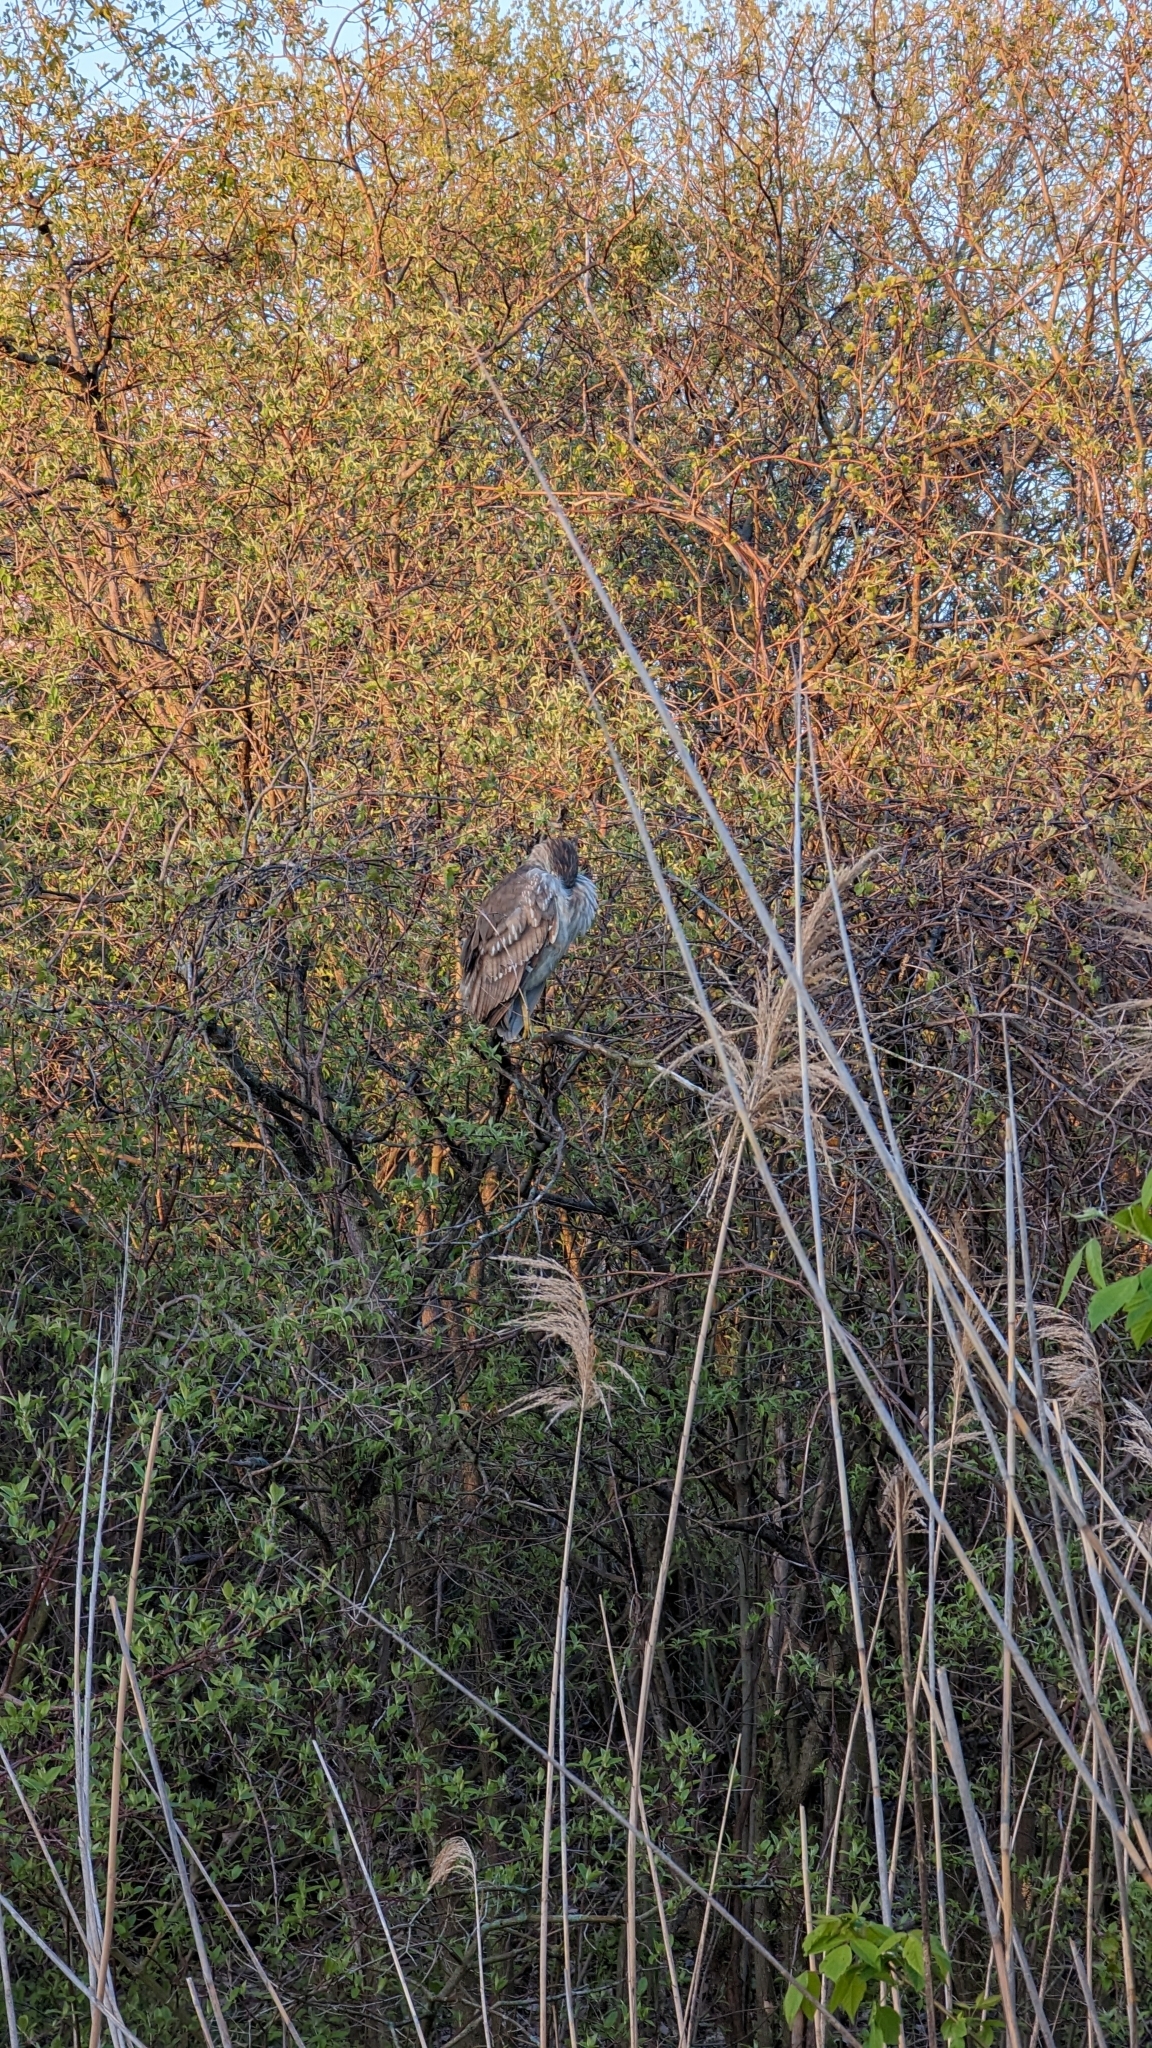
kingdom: Animalia
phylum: Chordata
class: Aves
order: Pelecaniformes
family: Ardeidae
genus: Nycticorax
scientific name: Nycticorax nycticorax
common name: Black-crowned night heron
